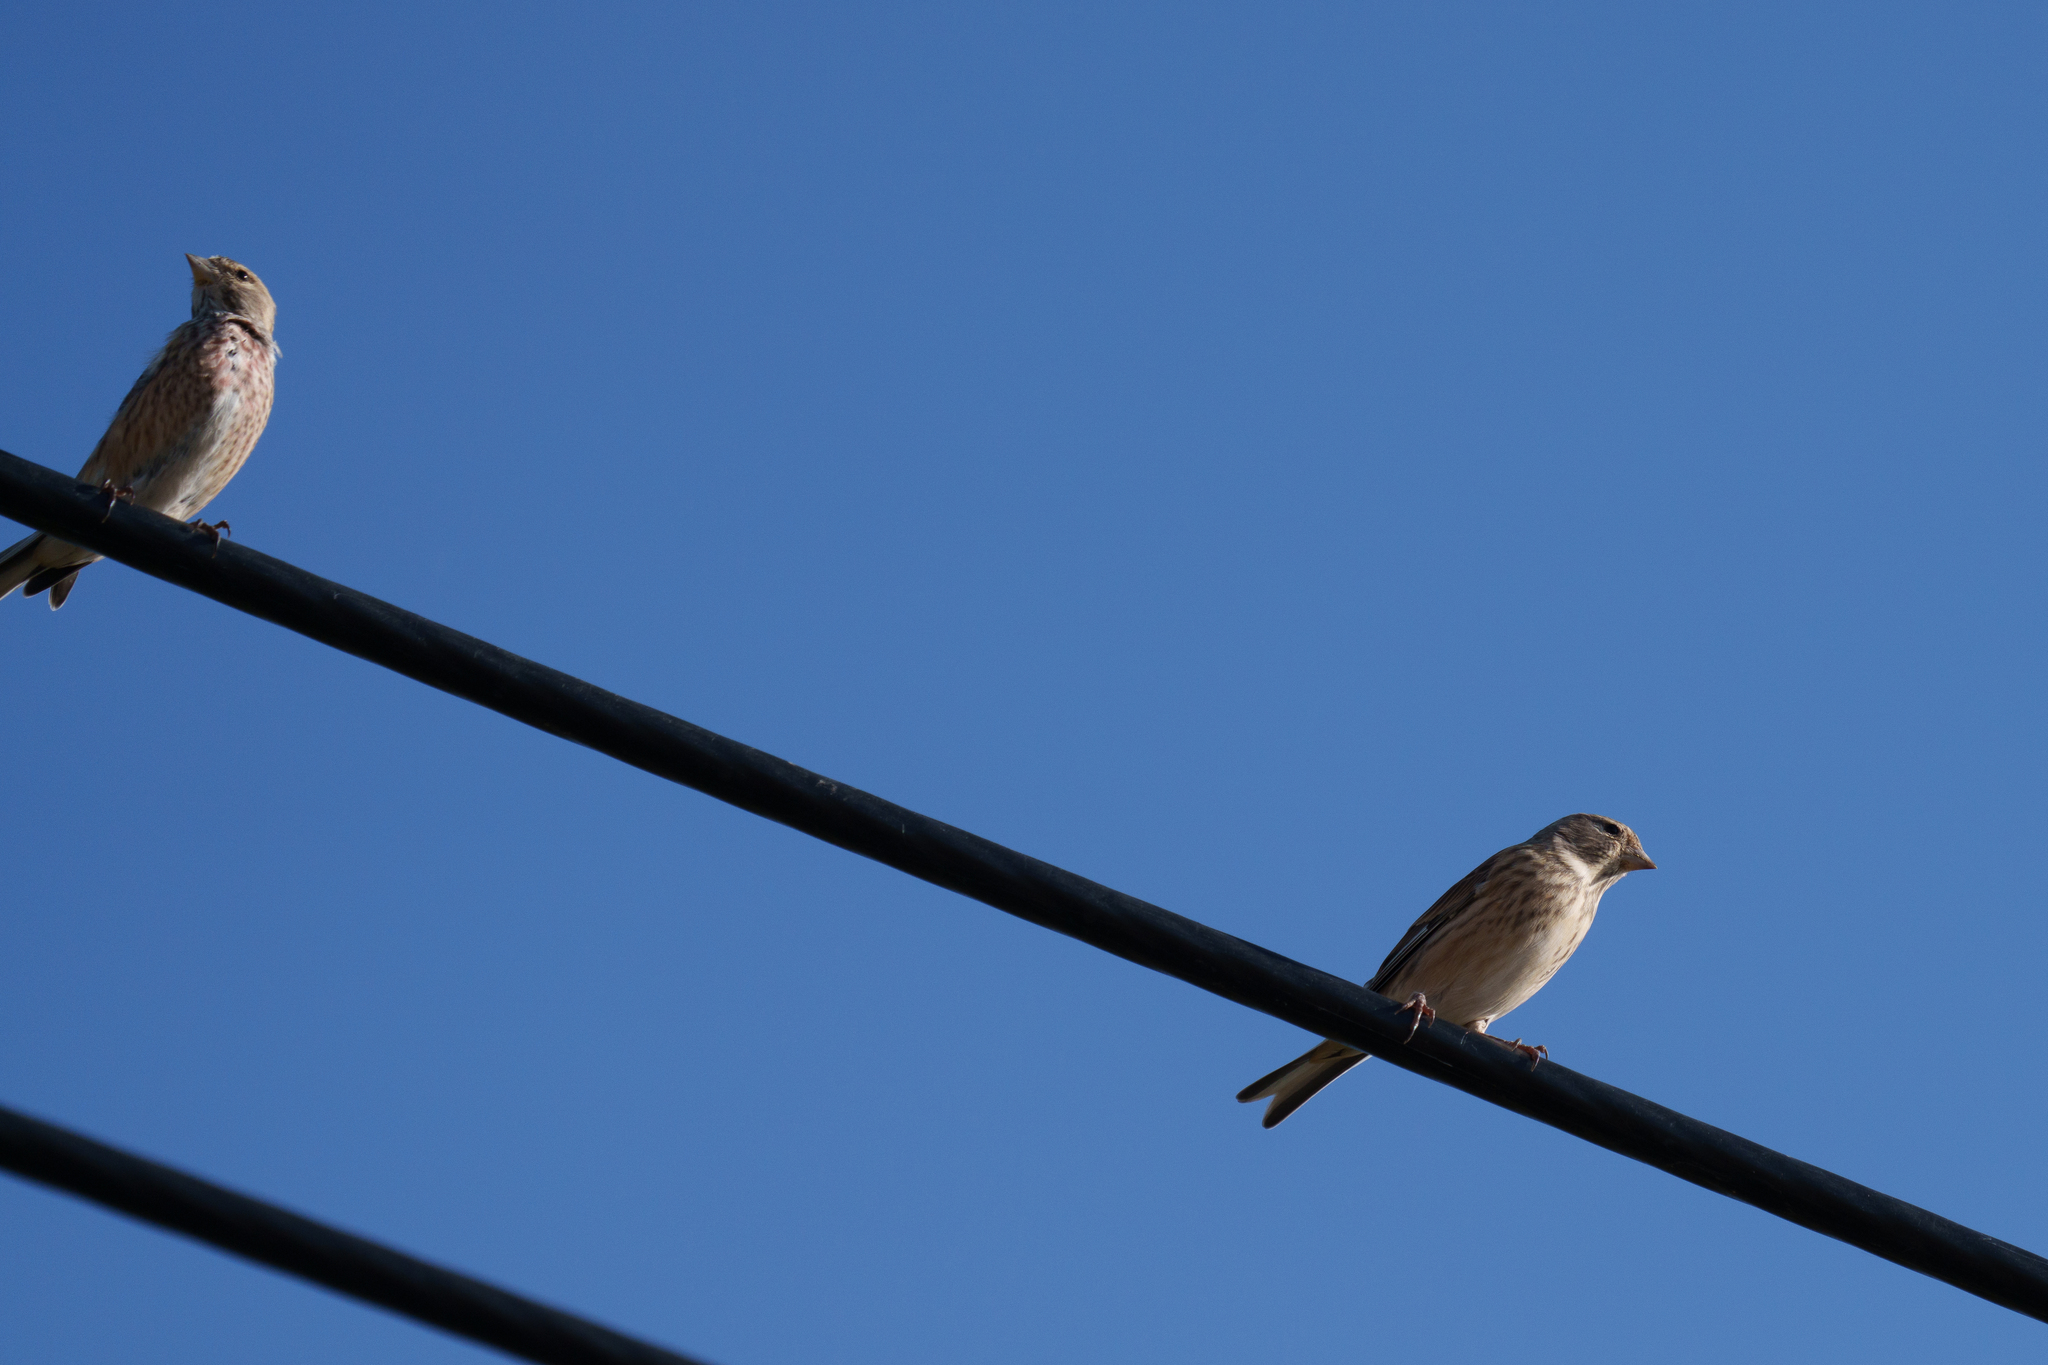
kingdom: Animalia
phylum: Chordata
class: Aves
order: Passeriformes
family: Fringillidae
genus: Linaria
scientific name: Linaria cannabina
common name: Common linnet
